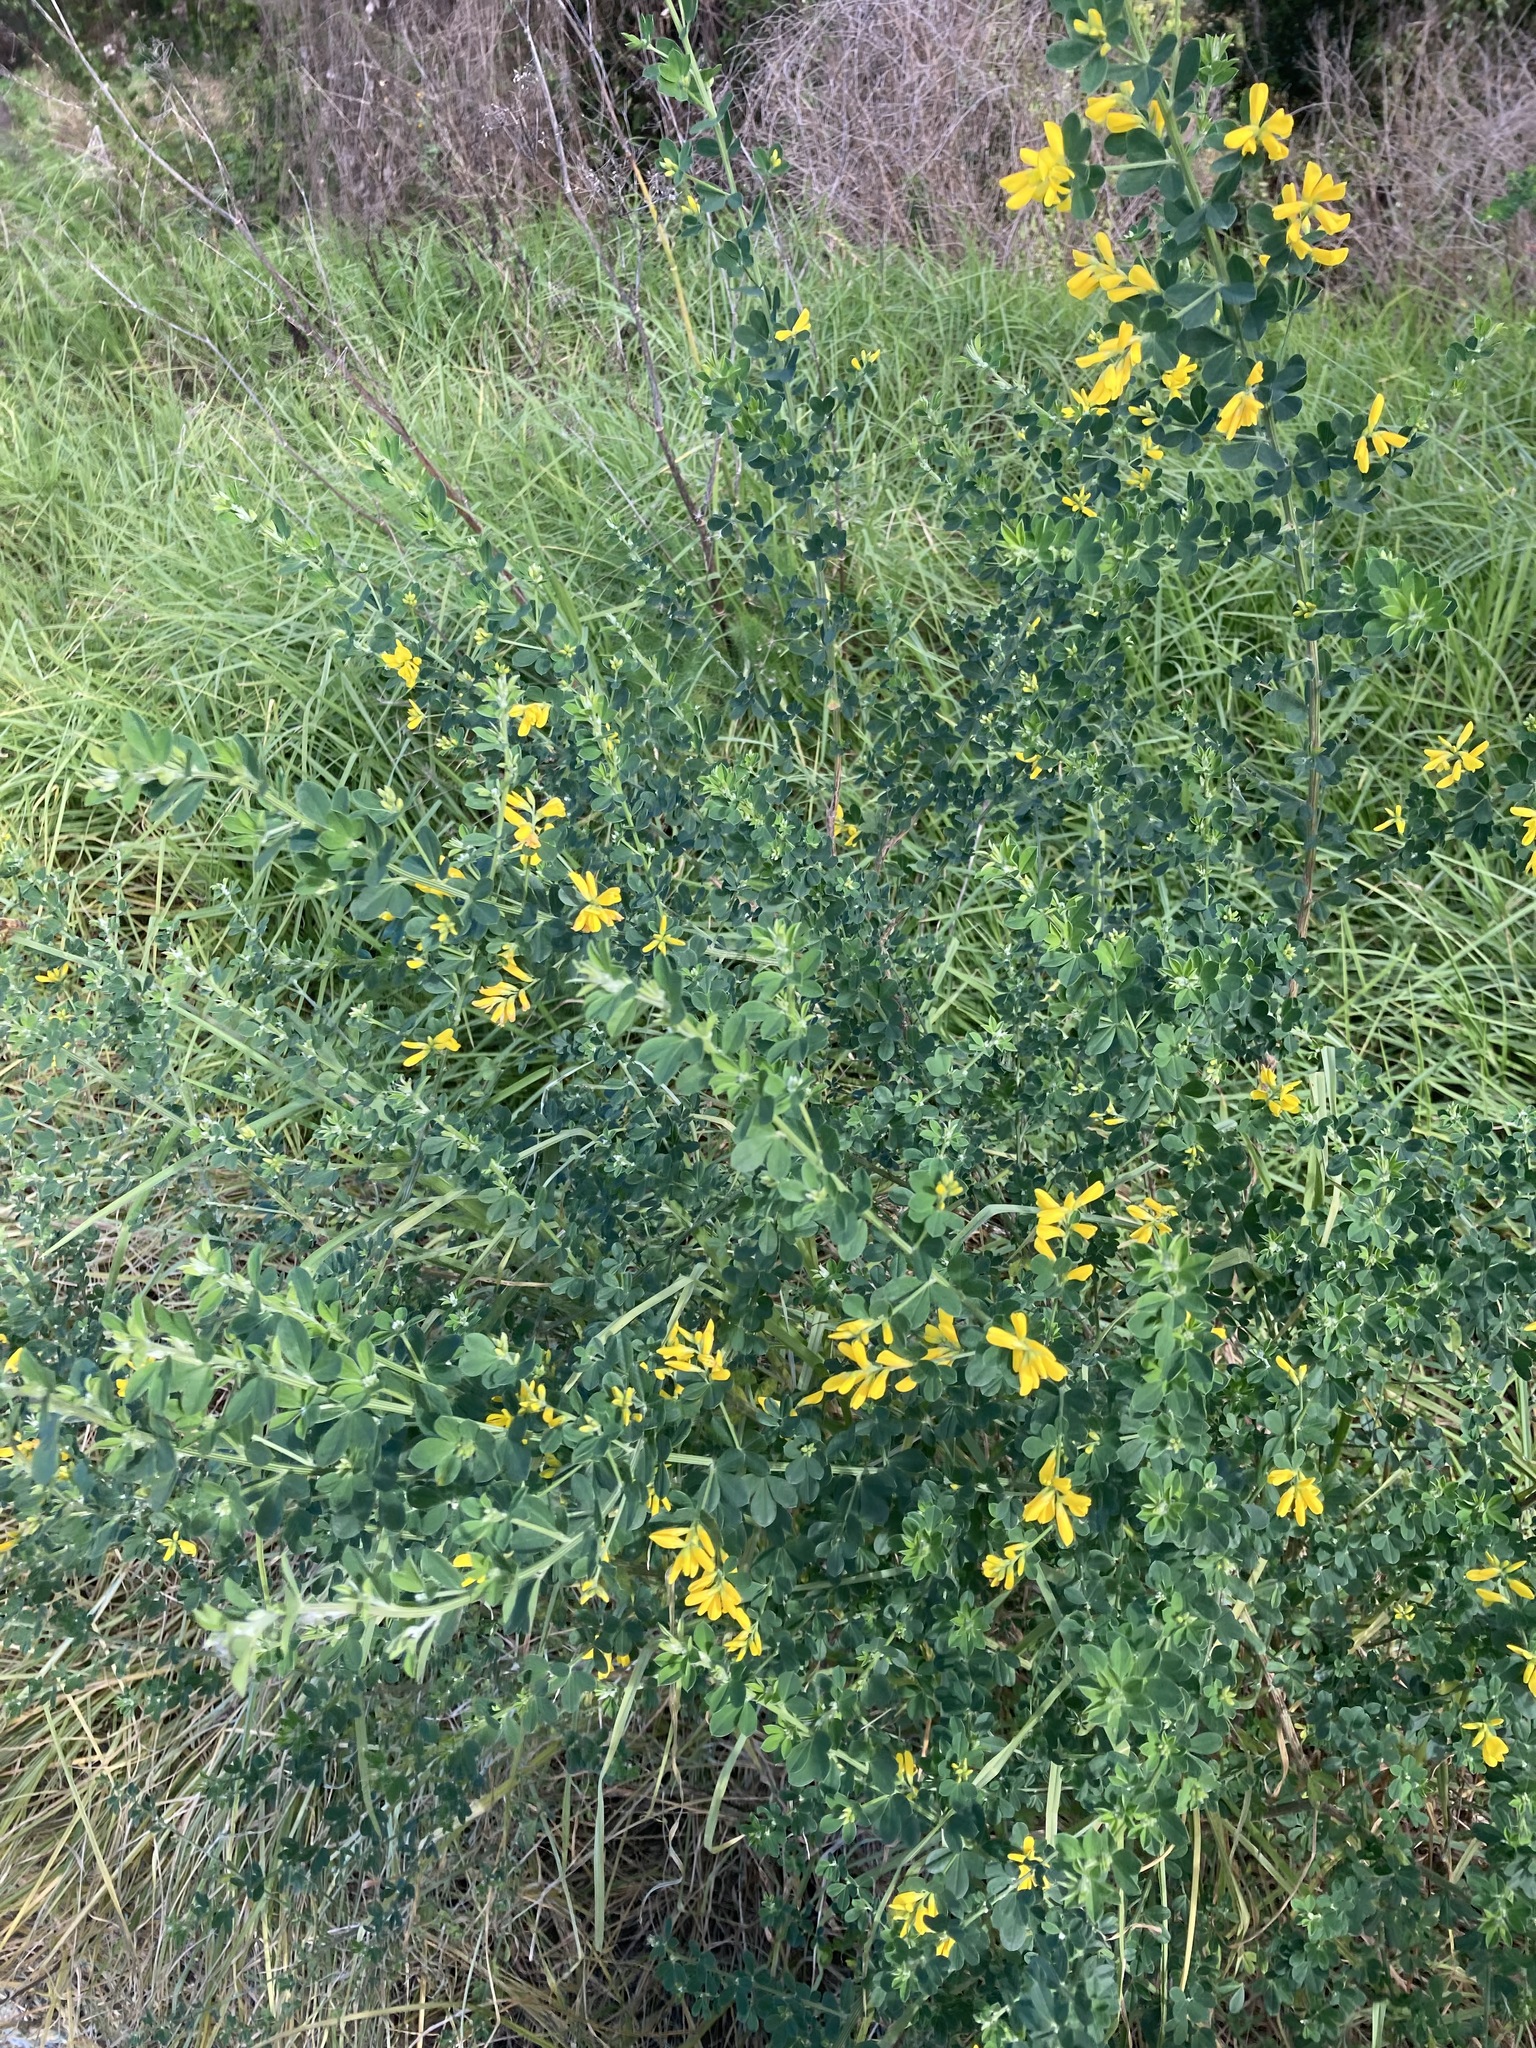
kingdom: Plantae
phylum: Tracheophyta
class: Magnoliopsida
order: Fabales
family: Fabaceae
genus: Genista
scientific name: Genista monspessulana
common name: Montpellier broom
